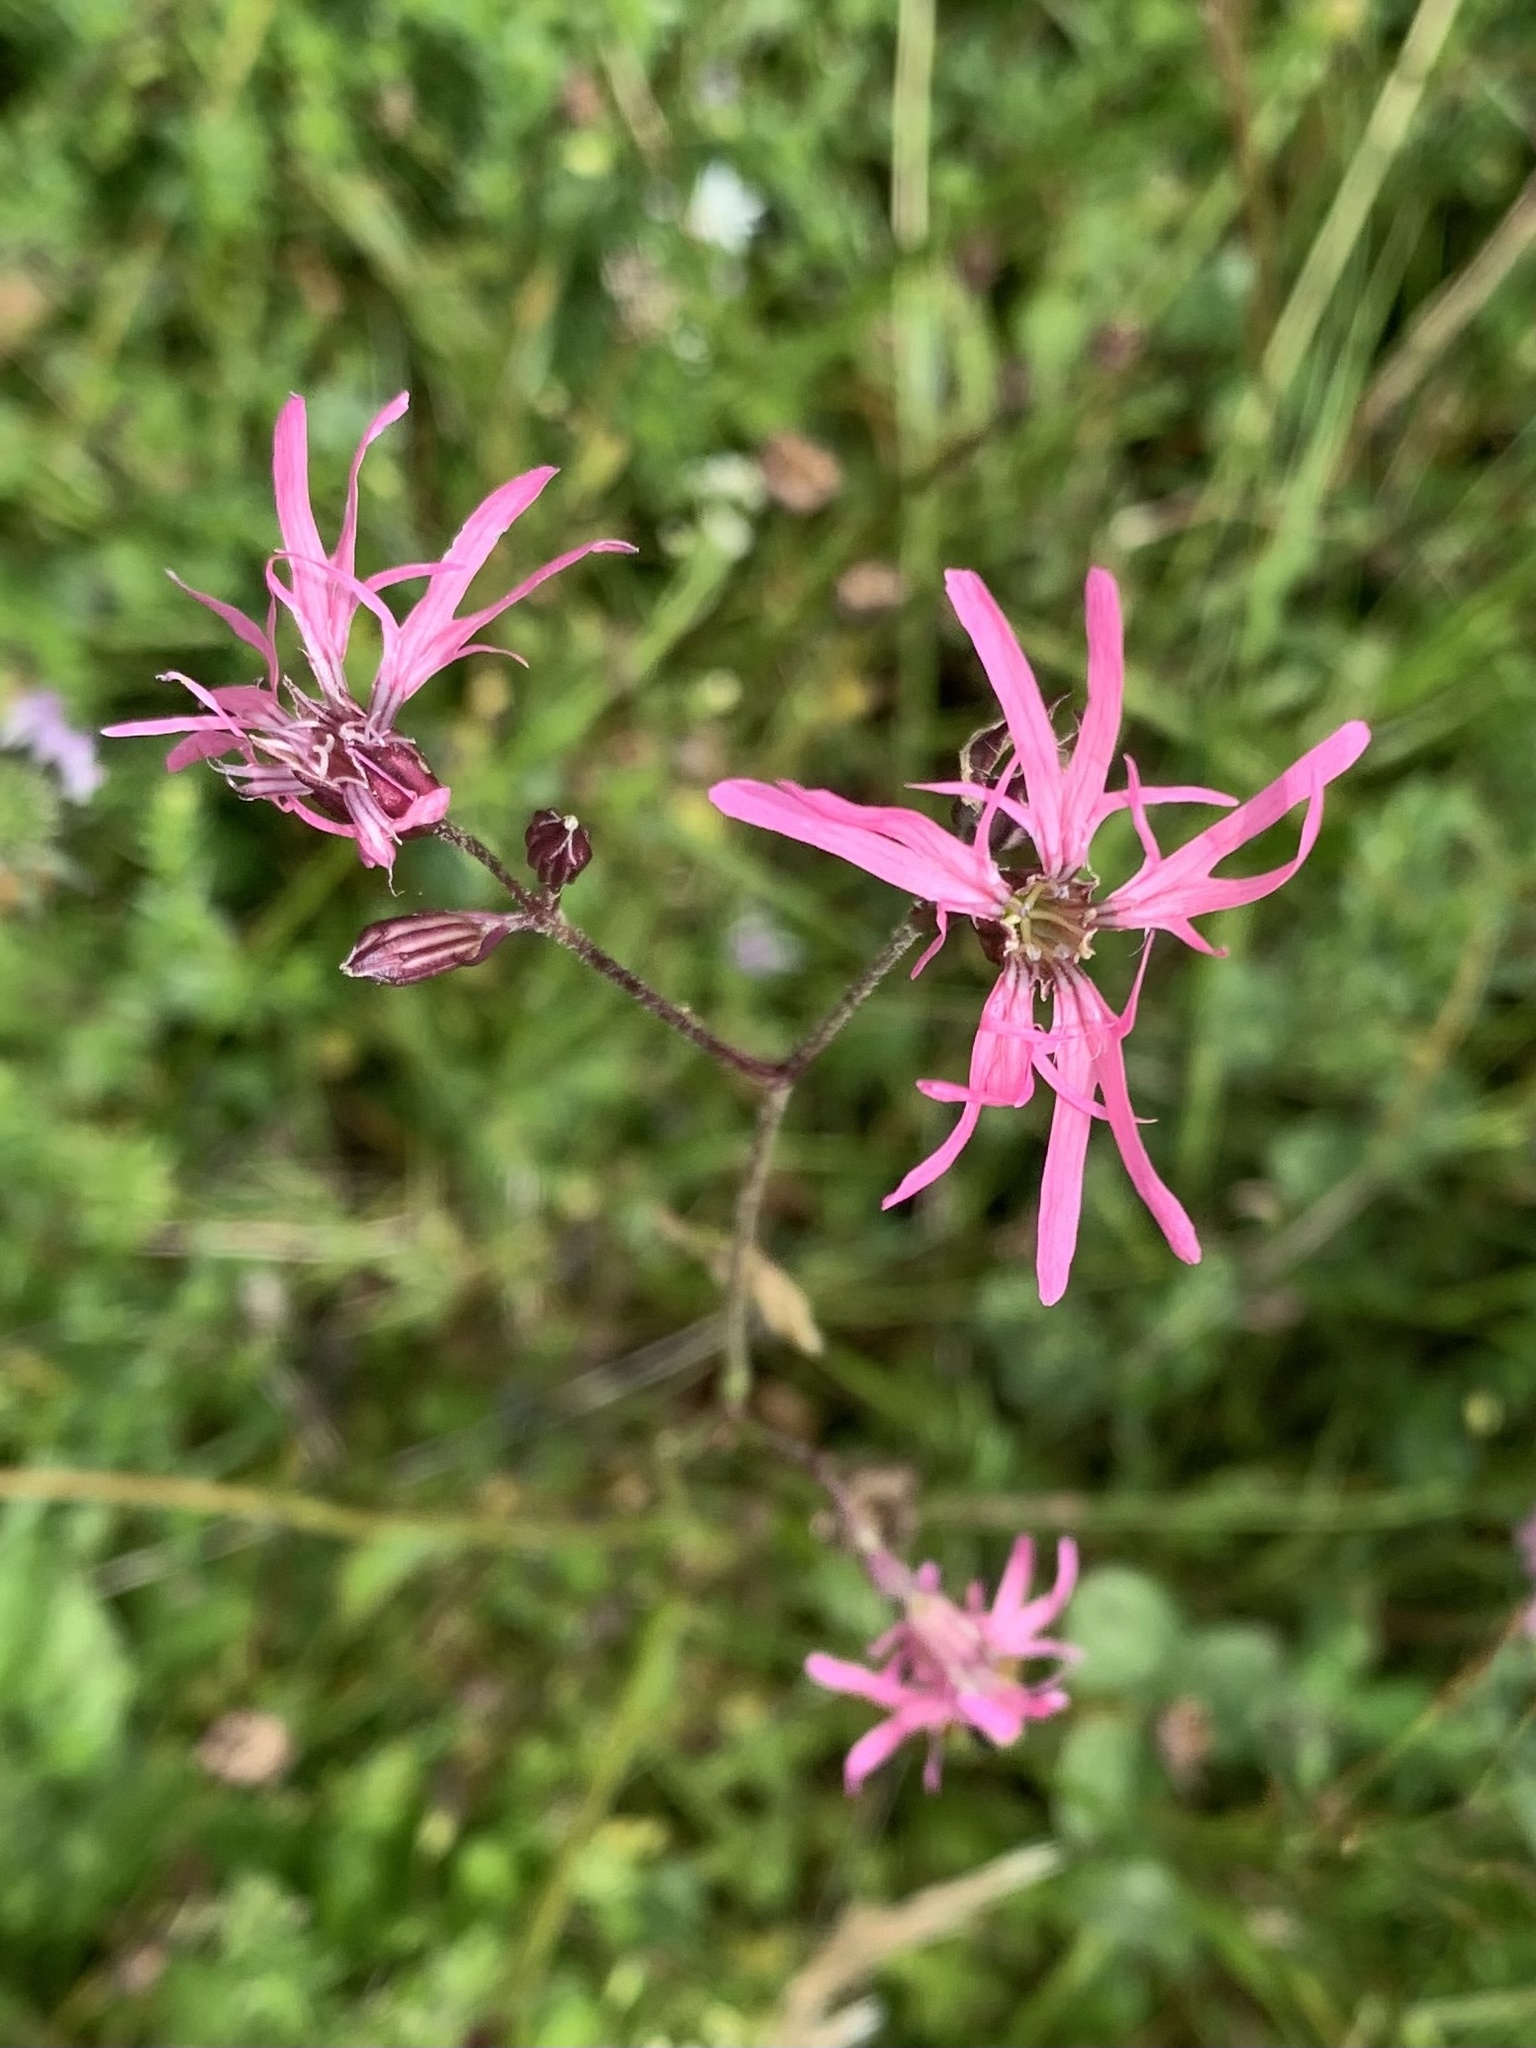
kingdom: Plantae
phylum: Tracheophyta
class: Magnoliopsida
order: Caryophyllales
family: Caryophyllaceae
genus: Silene
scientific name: Silene flos-cuculi
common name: Ragged-robin
